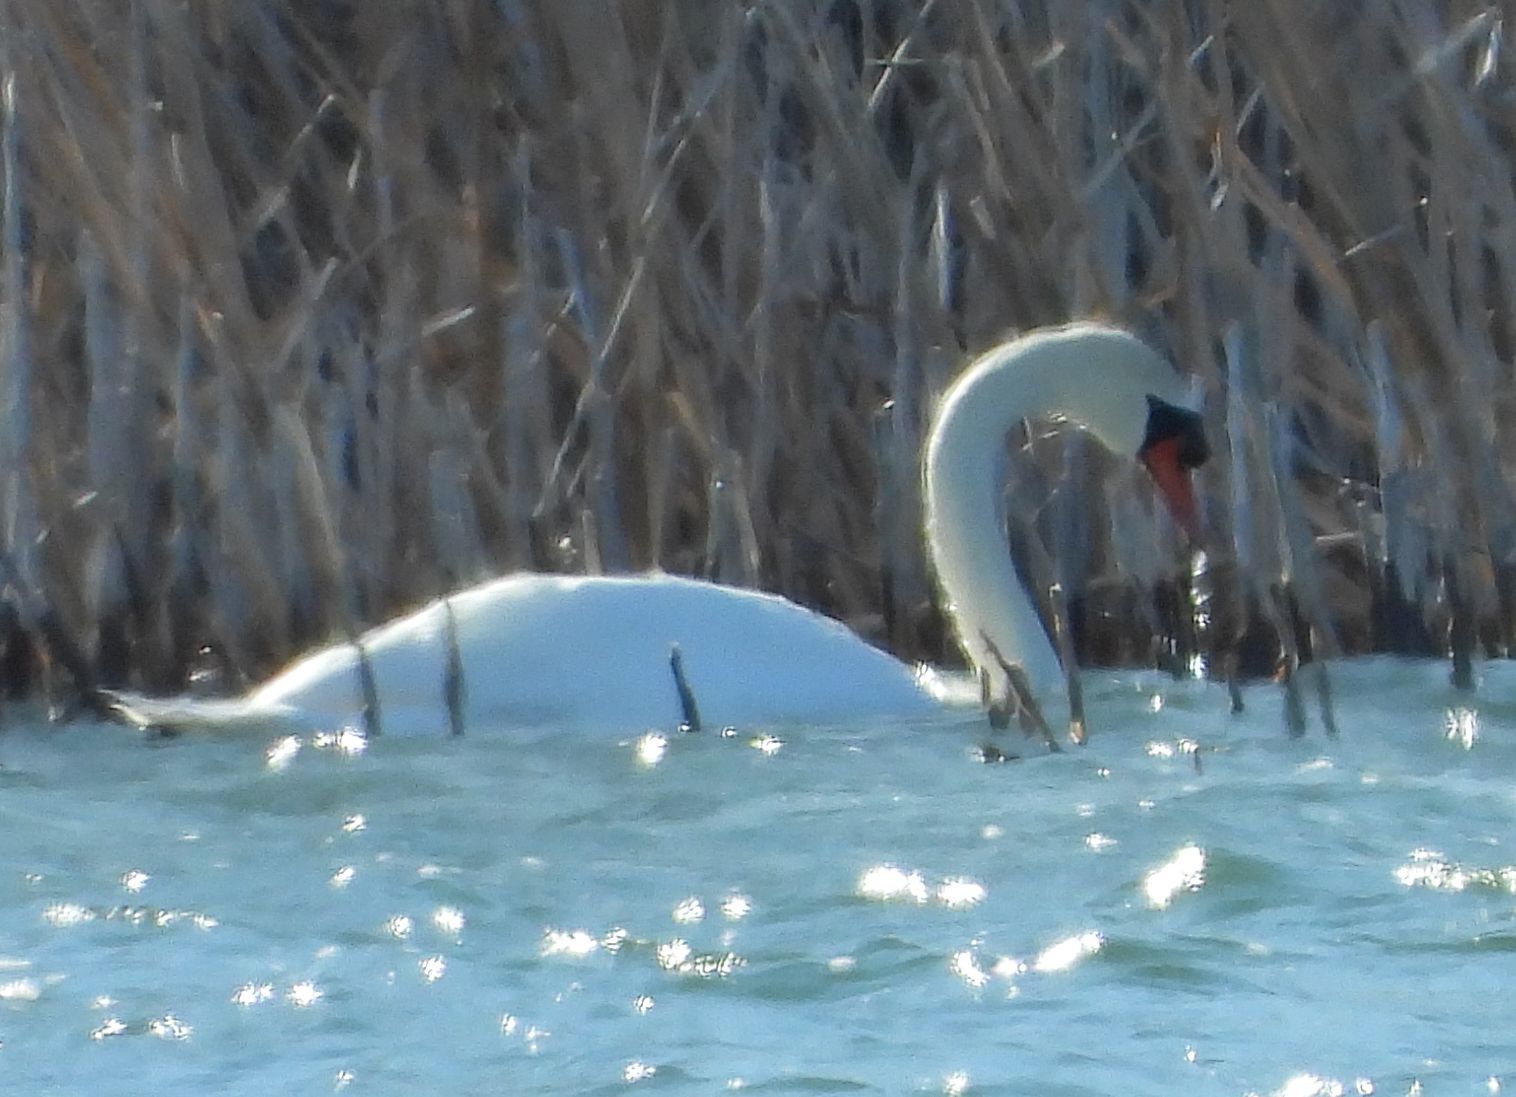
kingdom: Animalia
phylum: Chordata
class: Aves
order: Anseriformes
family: Anatidae
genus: Cygnus
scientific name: Cygnus olor
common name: Mute swan
